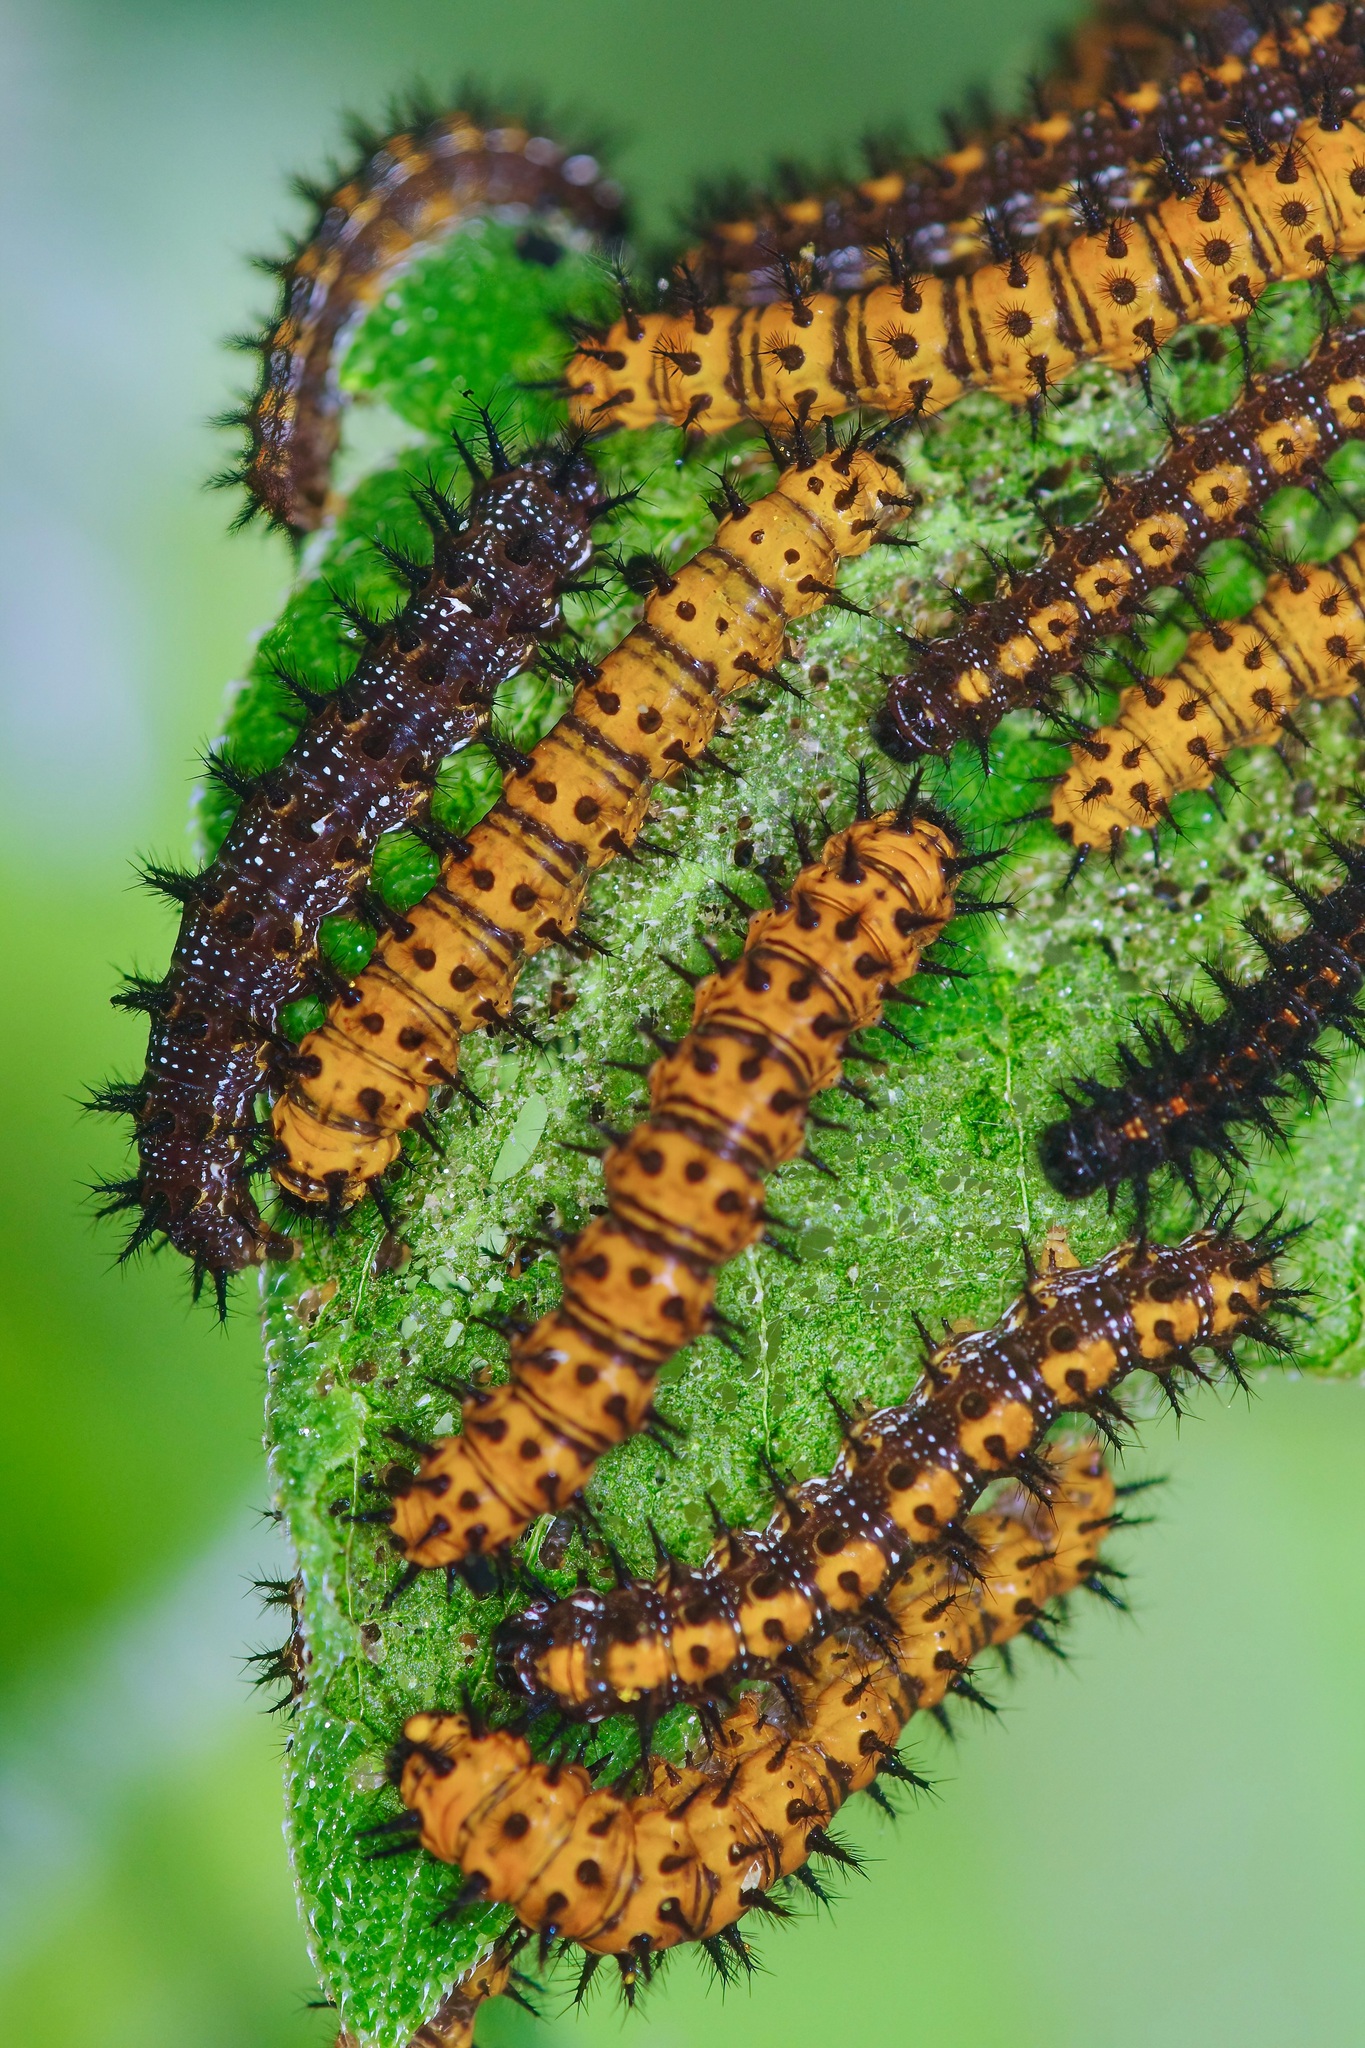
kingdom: Animalia
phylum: Arthropoda
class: Insecta
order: Lepidoptera
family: Nymphalidae
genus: Chlosyne
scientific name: Chlosyne lacinia
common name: Bordered patch
